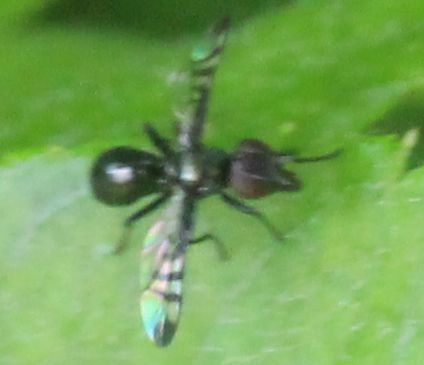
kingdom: Animalia
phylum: Arthropoda
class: Insecta
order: Diptera
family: Platystomatidae
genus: Rivellia
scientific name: Rivellia syngenesiae
